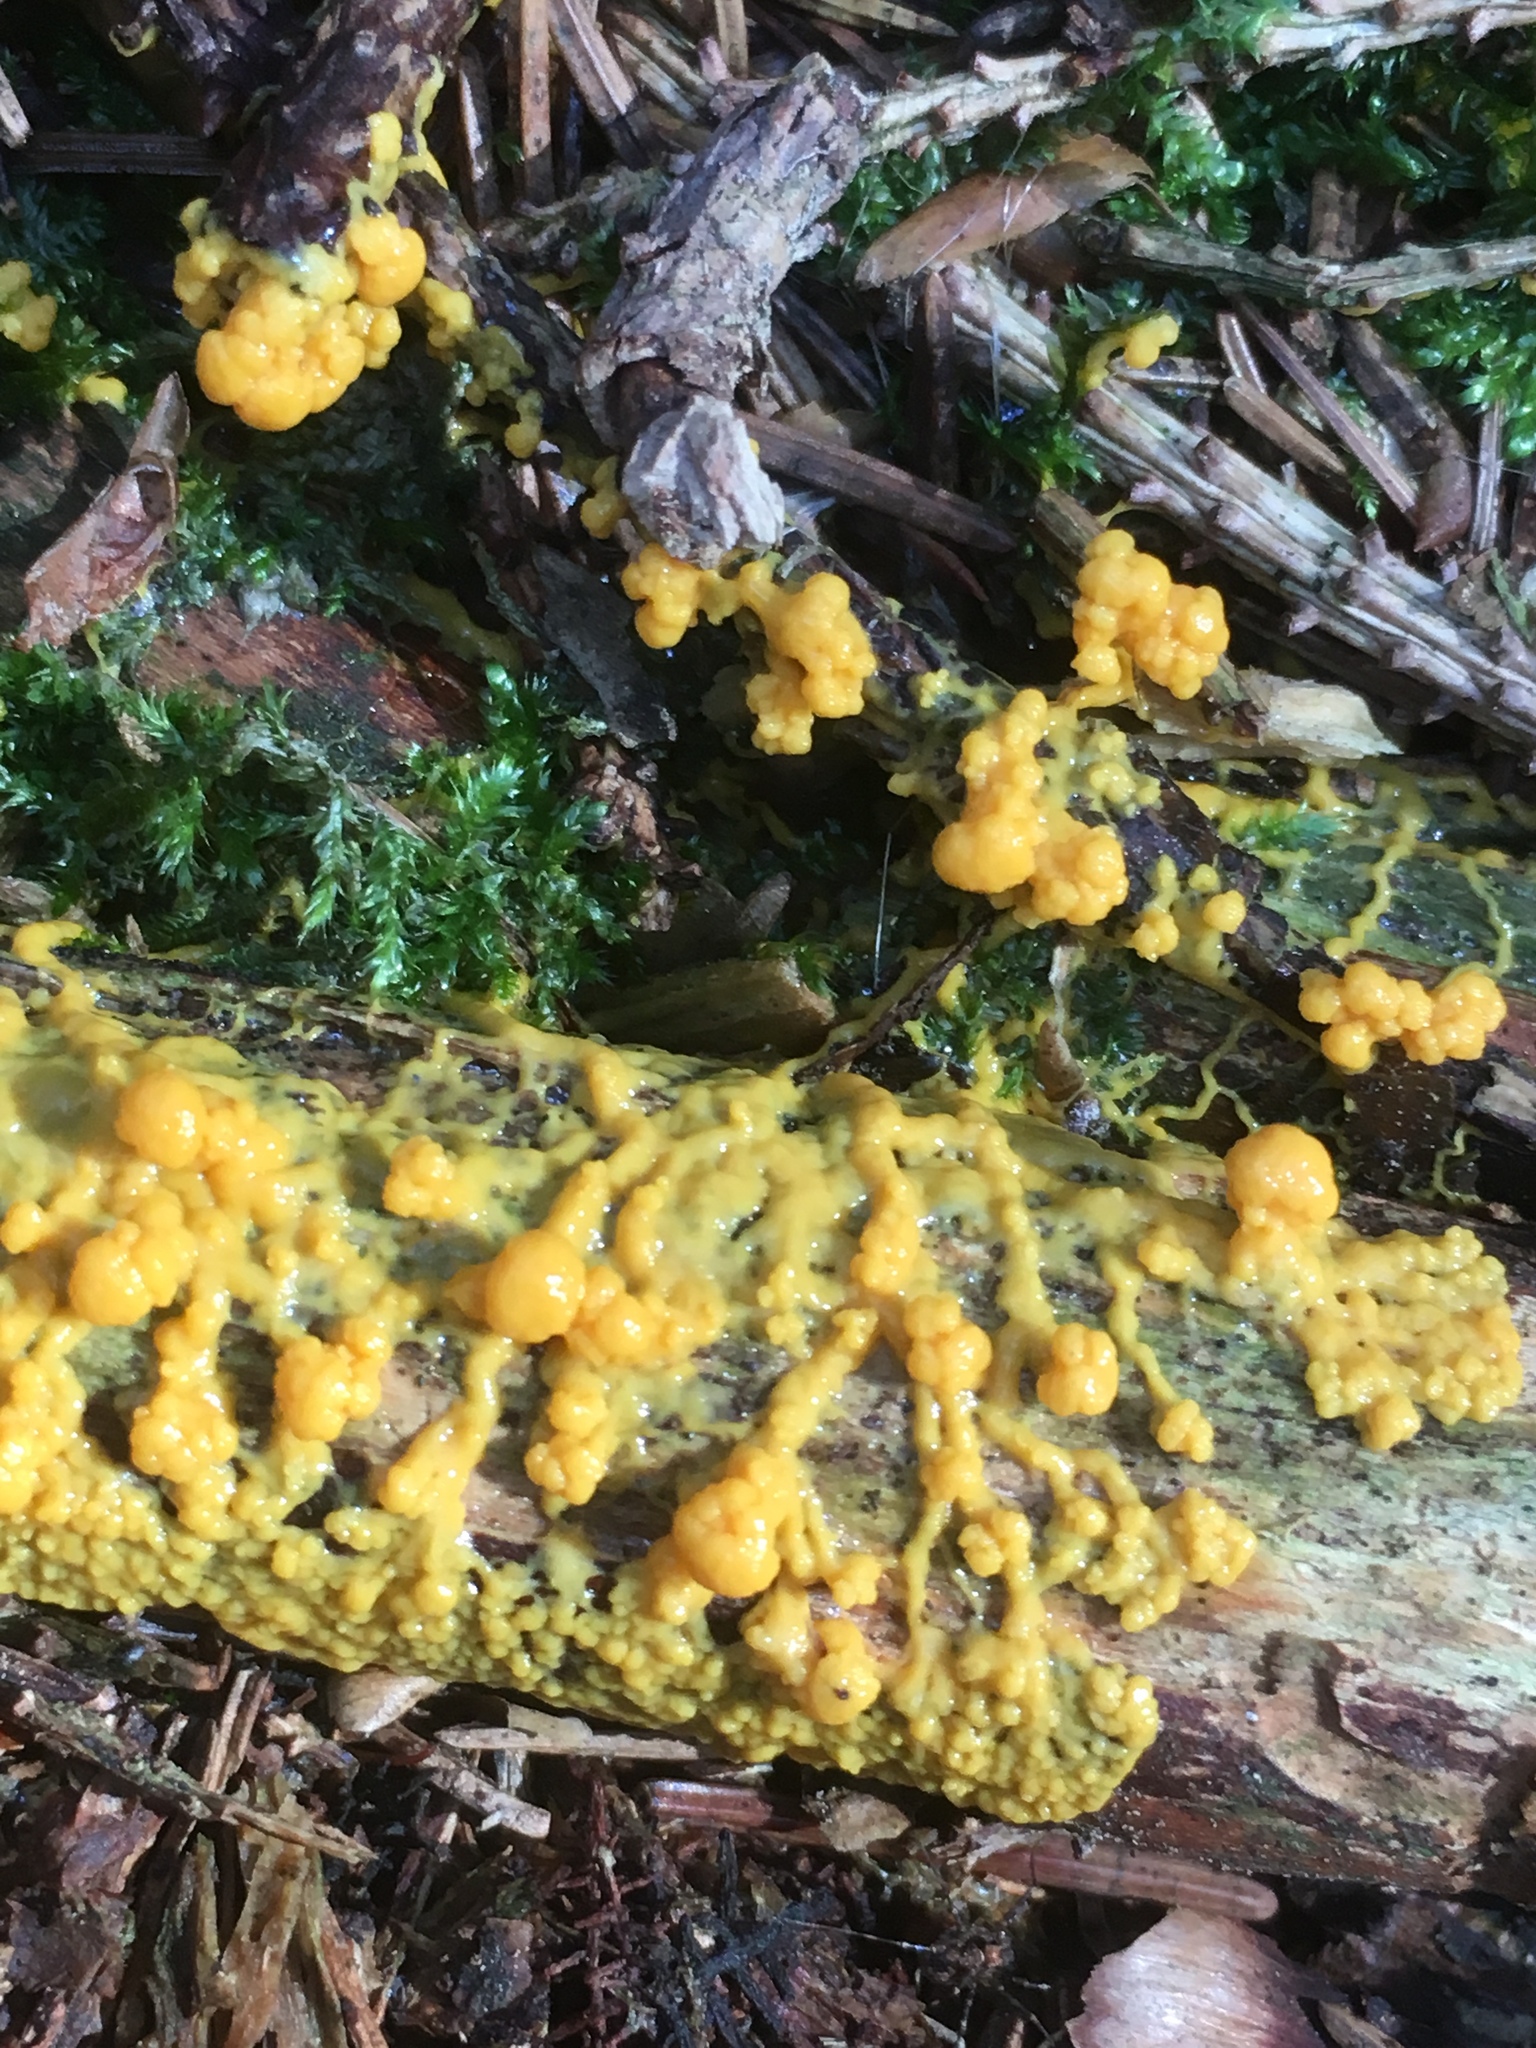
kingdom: Protozoa
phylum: Mycetozoa
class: Myxomycetes
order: Physarales
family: Physaraceae
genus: Fuligo
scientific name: Fuligo septica
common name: Dog vomit slime mold
